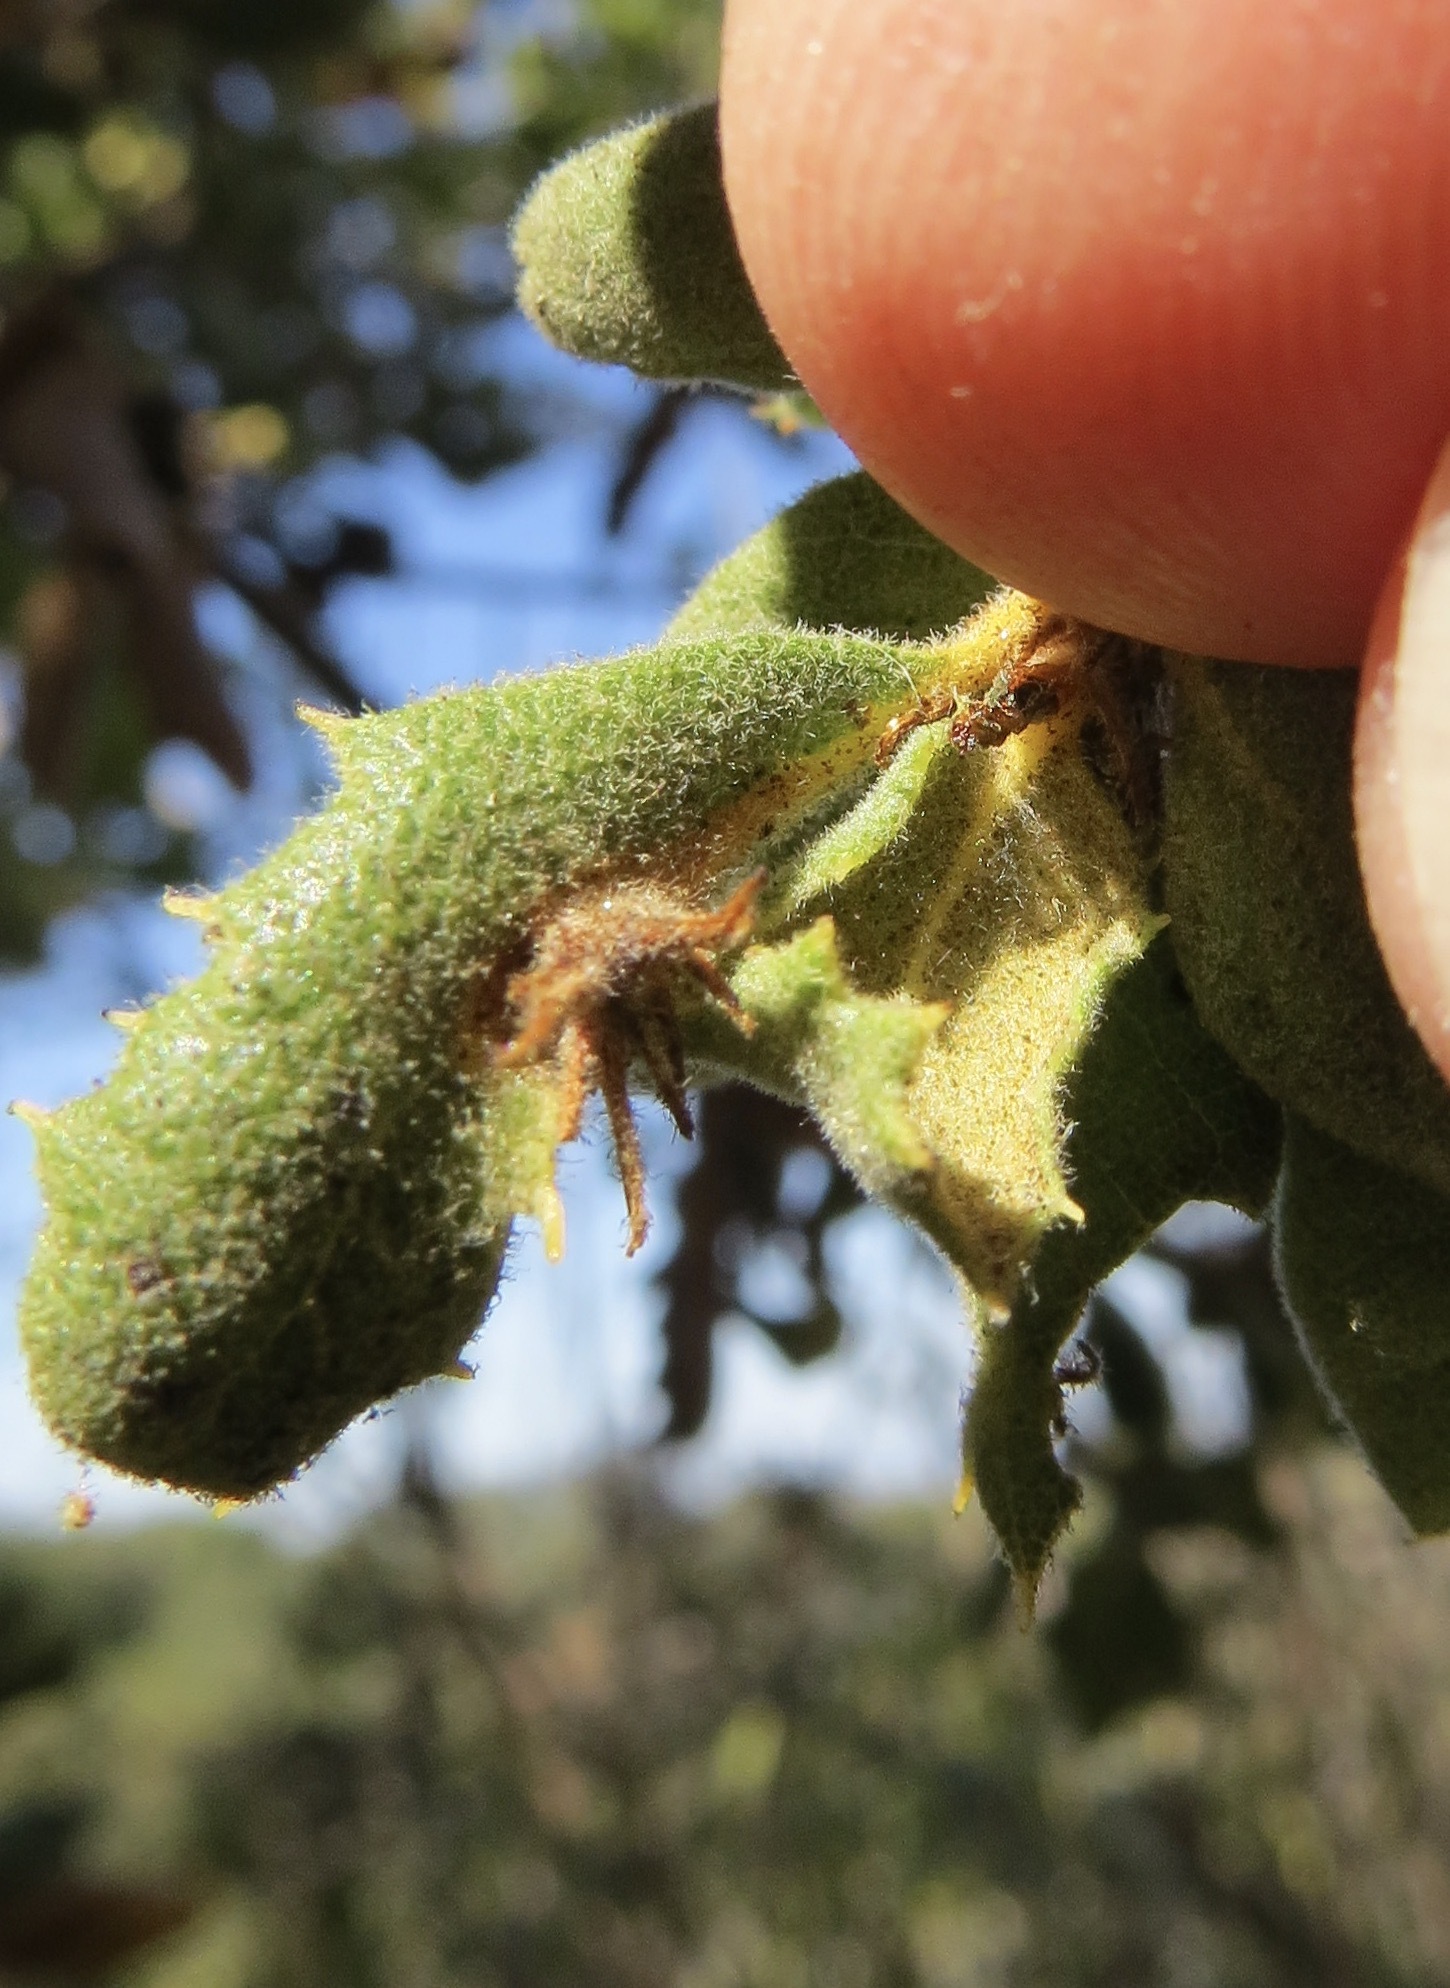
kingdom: Animalia
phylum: Arthropoda
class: Insecta
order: Hymenoptera
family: Cynipidae
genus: Andricus
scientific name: Andricus
